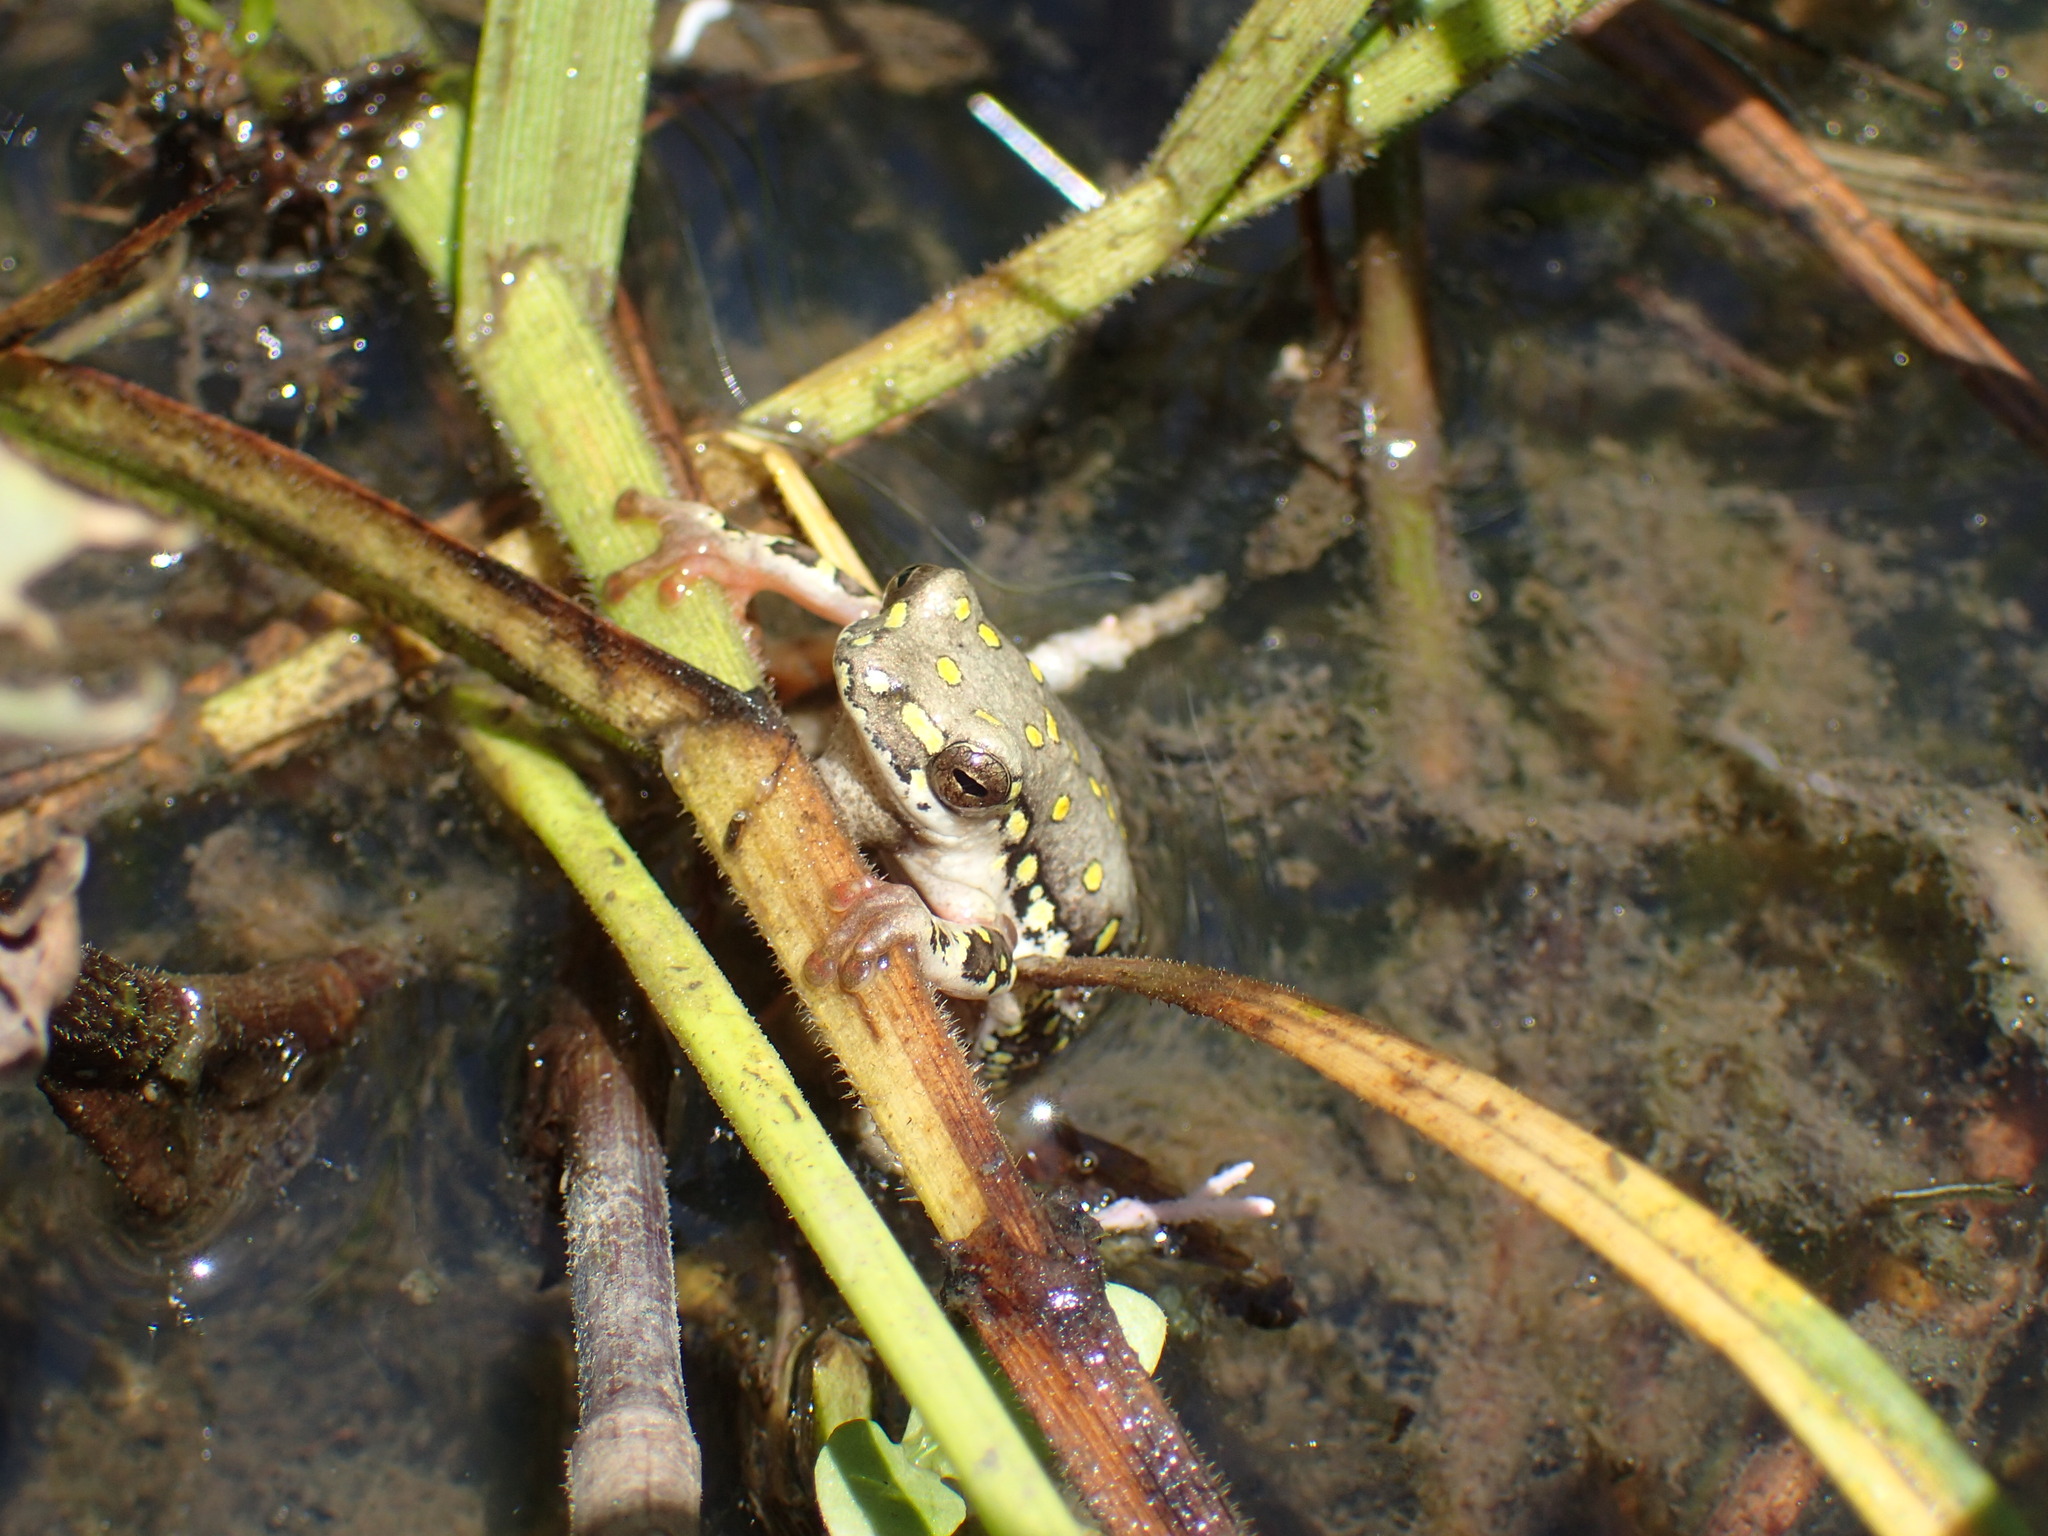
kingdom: Animalia
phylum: Chordata
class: Amphibia
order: Anura
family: Hyperoliidae
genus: Hyperolius
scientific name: Hyperolius marmoratus
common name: Painted reed frog
